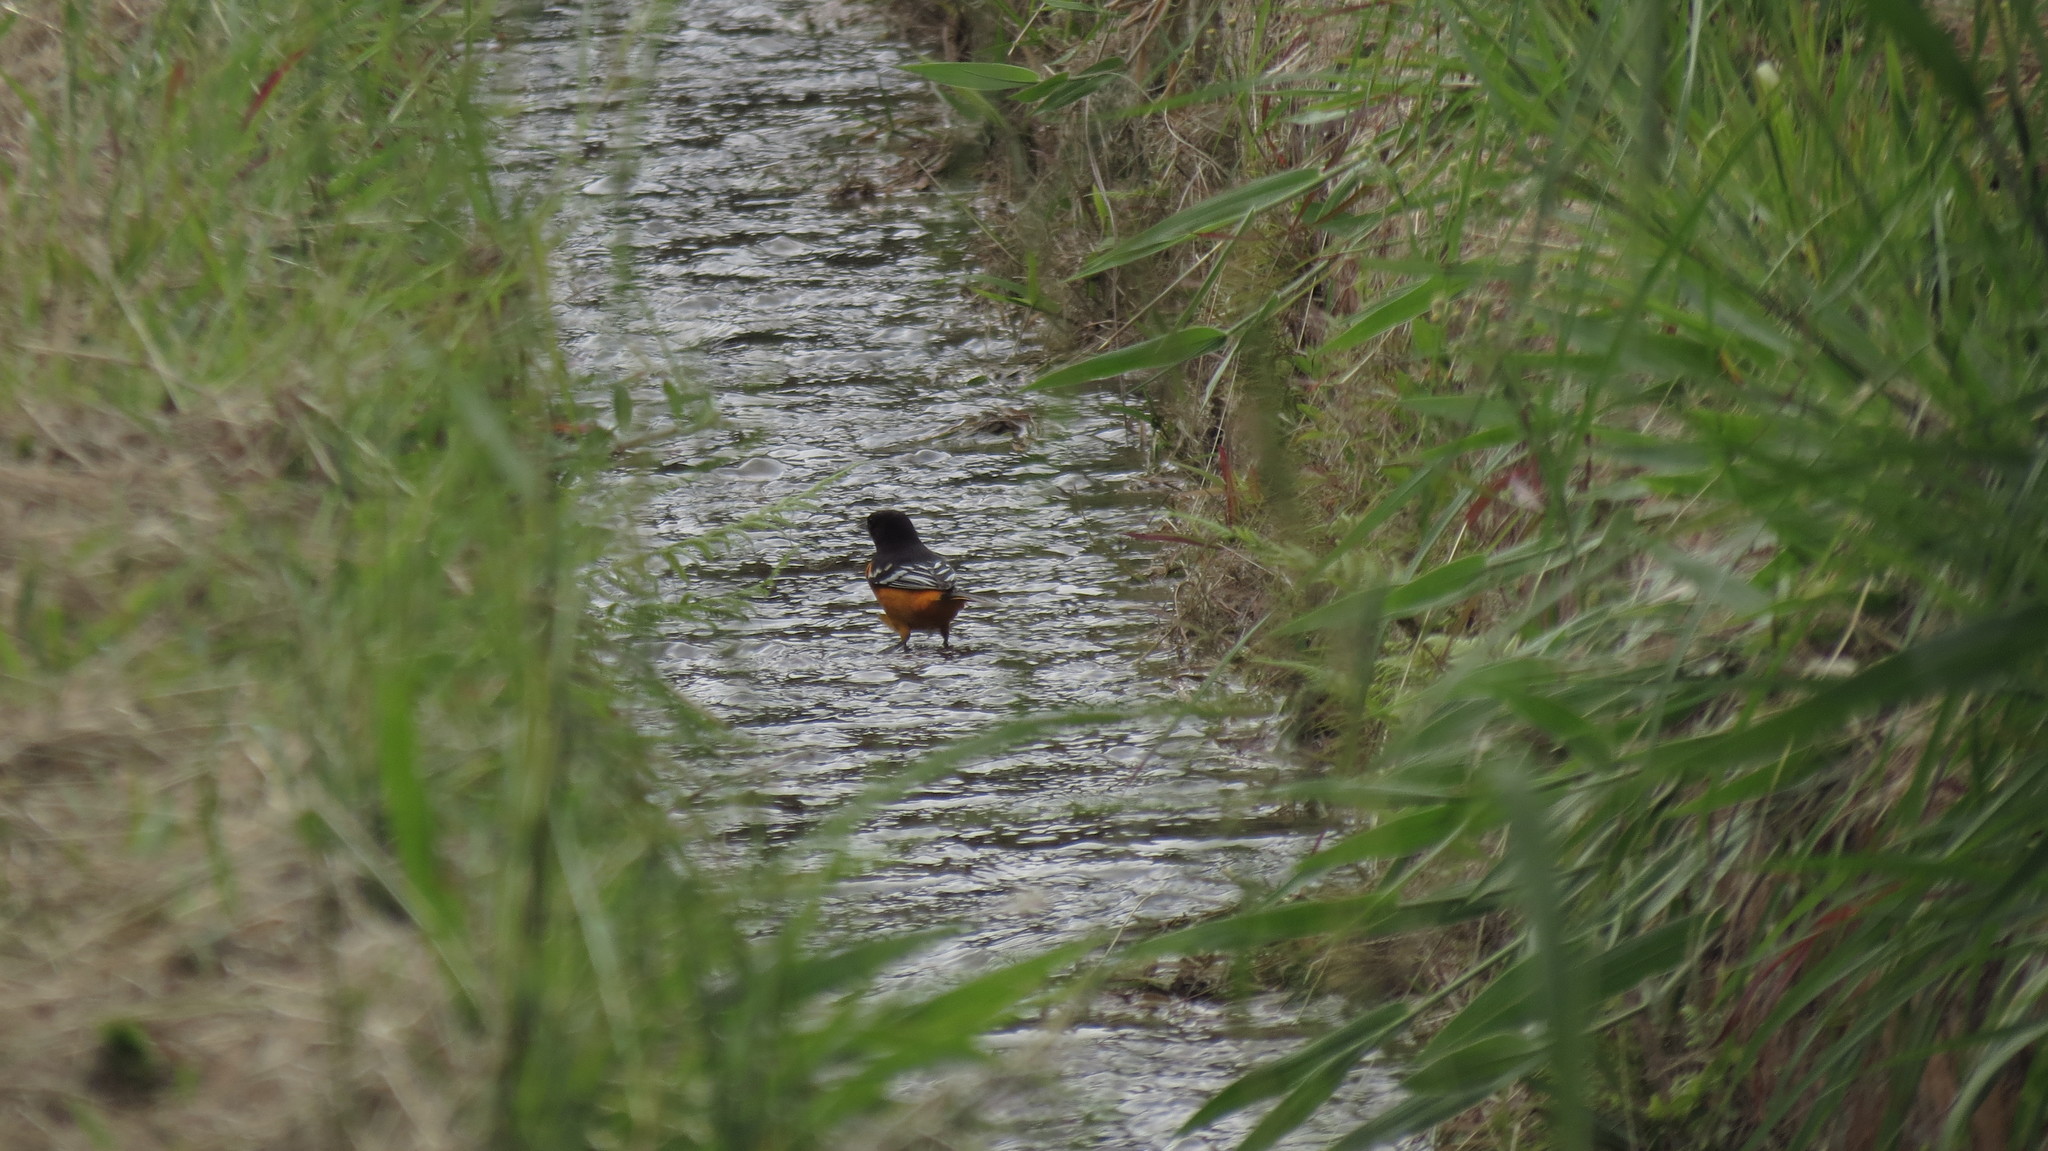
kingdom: Animalia
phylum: Chordata
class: Aves
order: Passeriformes
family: Icteridae
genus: Icterus
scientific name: Icterus galbula
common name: Baltimore oriole
